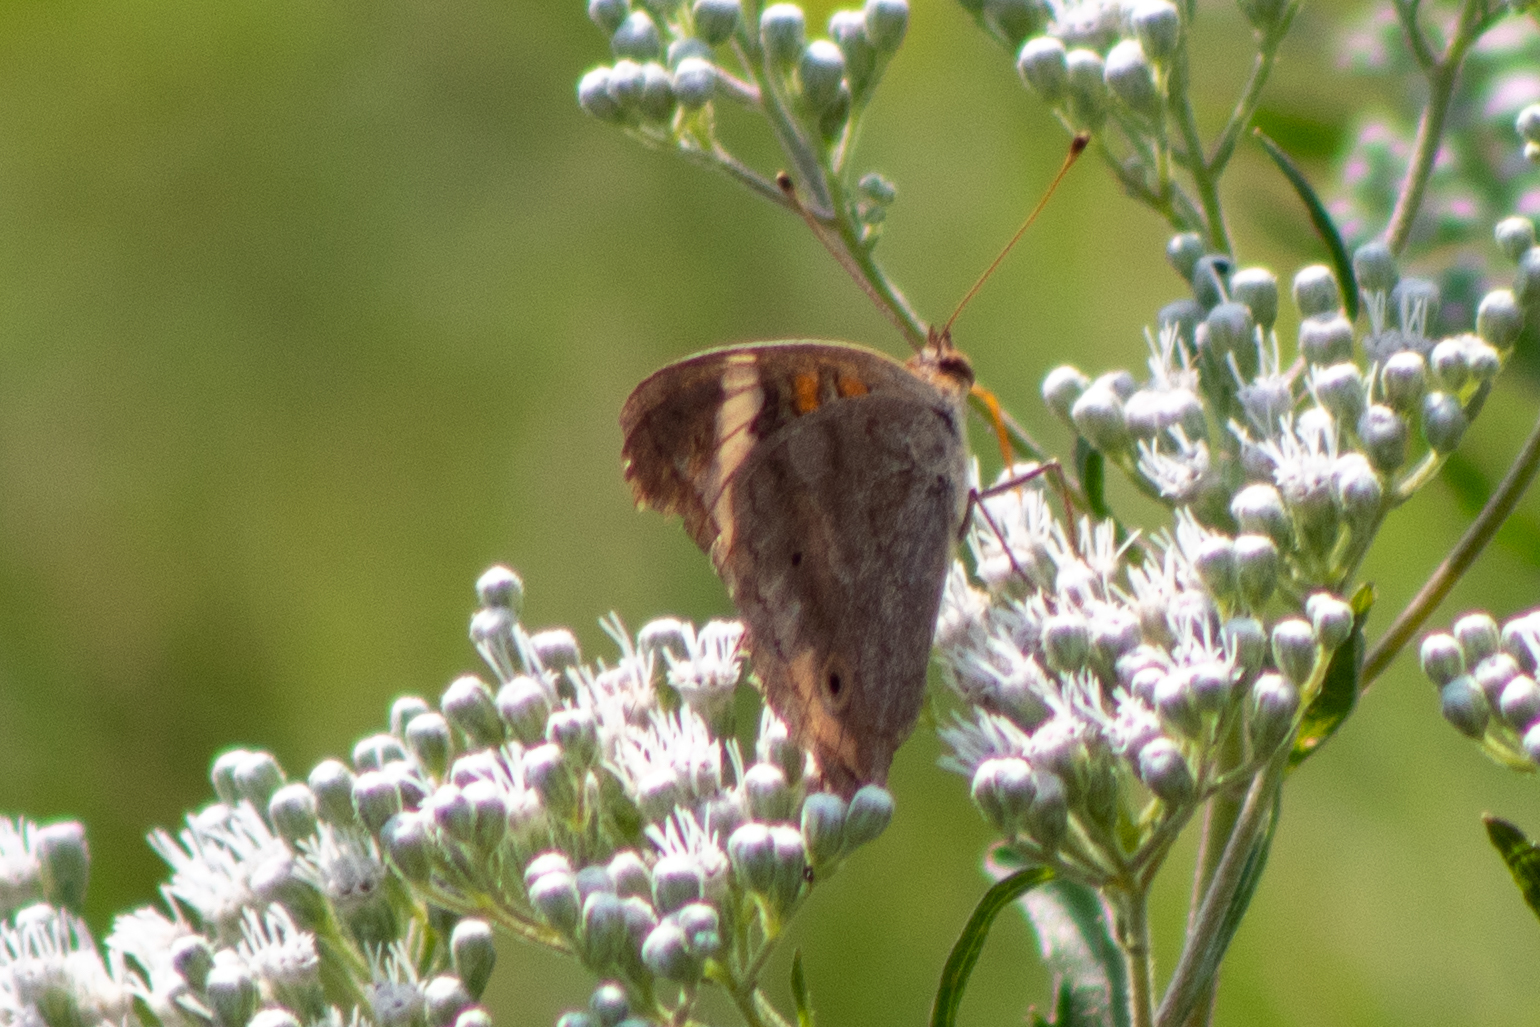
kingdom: Animalia
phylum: Arthropoda
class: Insecta
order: Lepidoptera
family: Nymphalidae
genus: Junonia
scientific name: Junonia coenia
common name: Common buckeye
